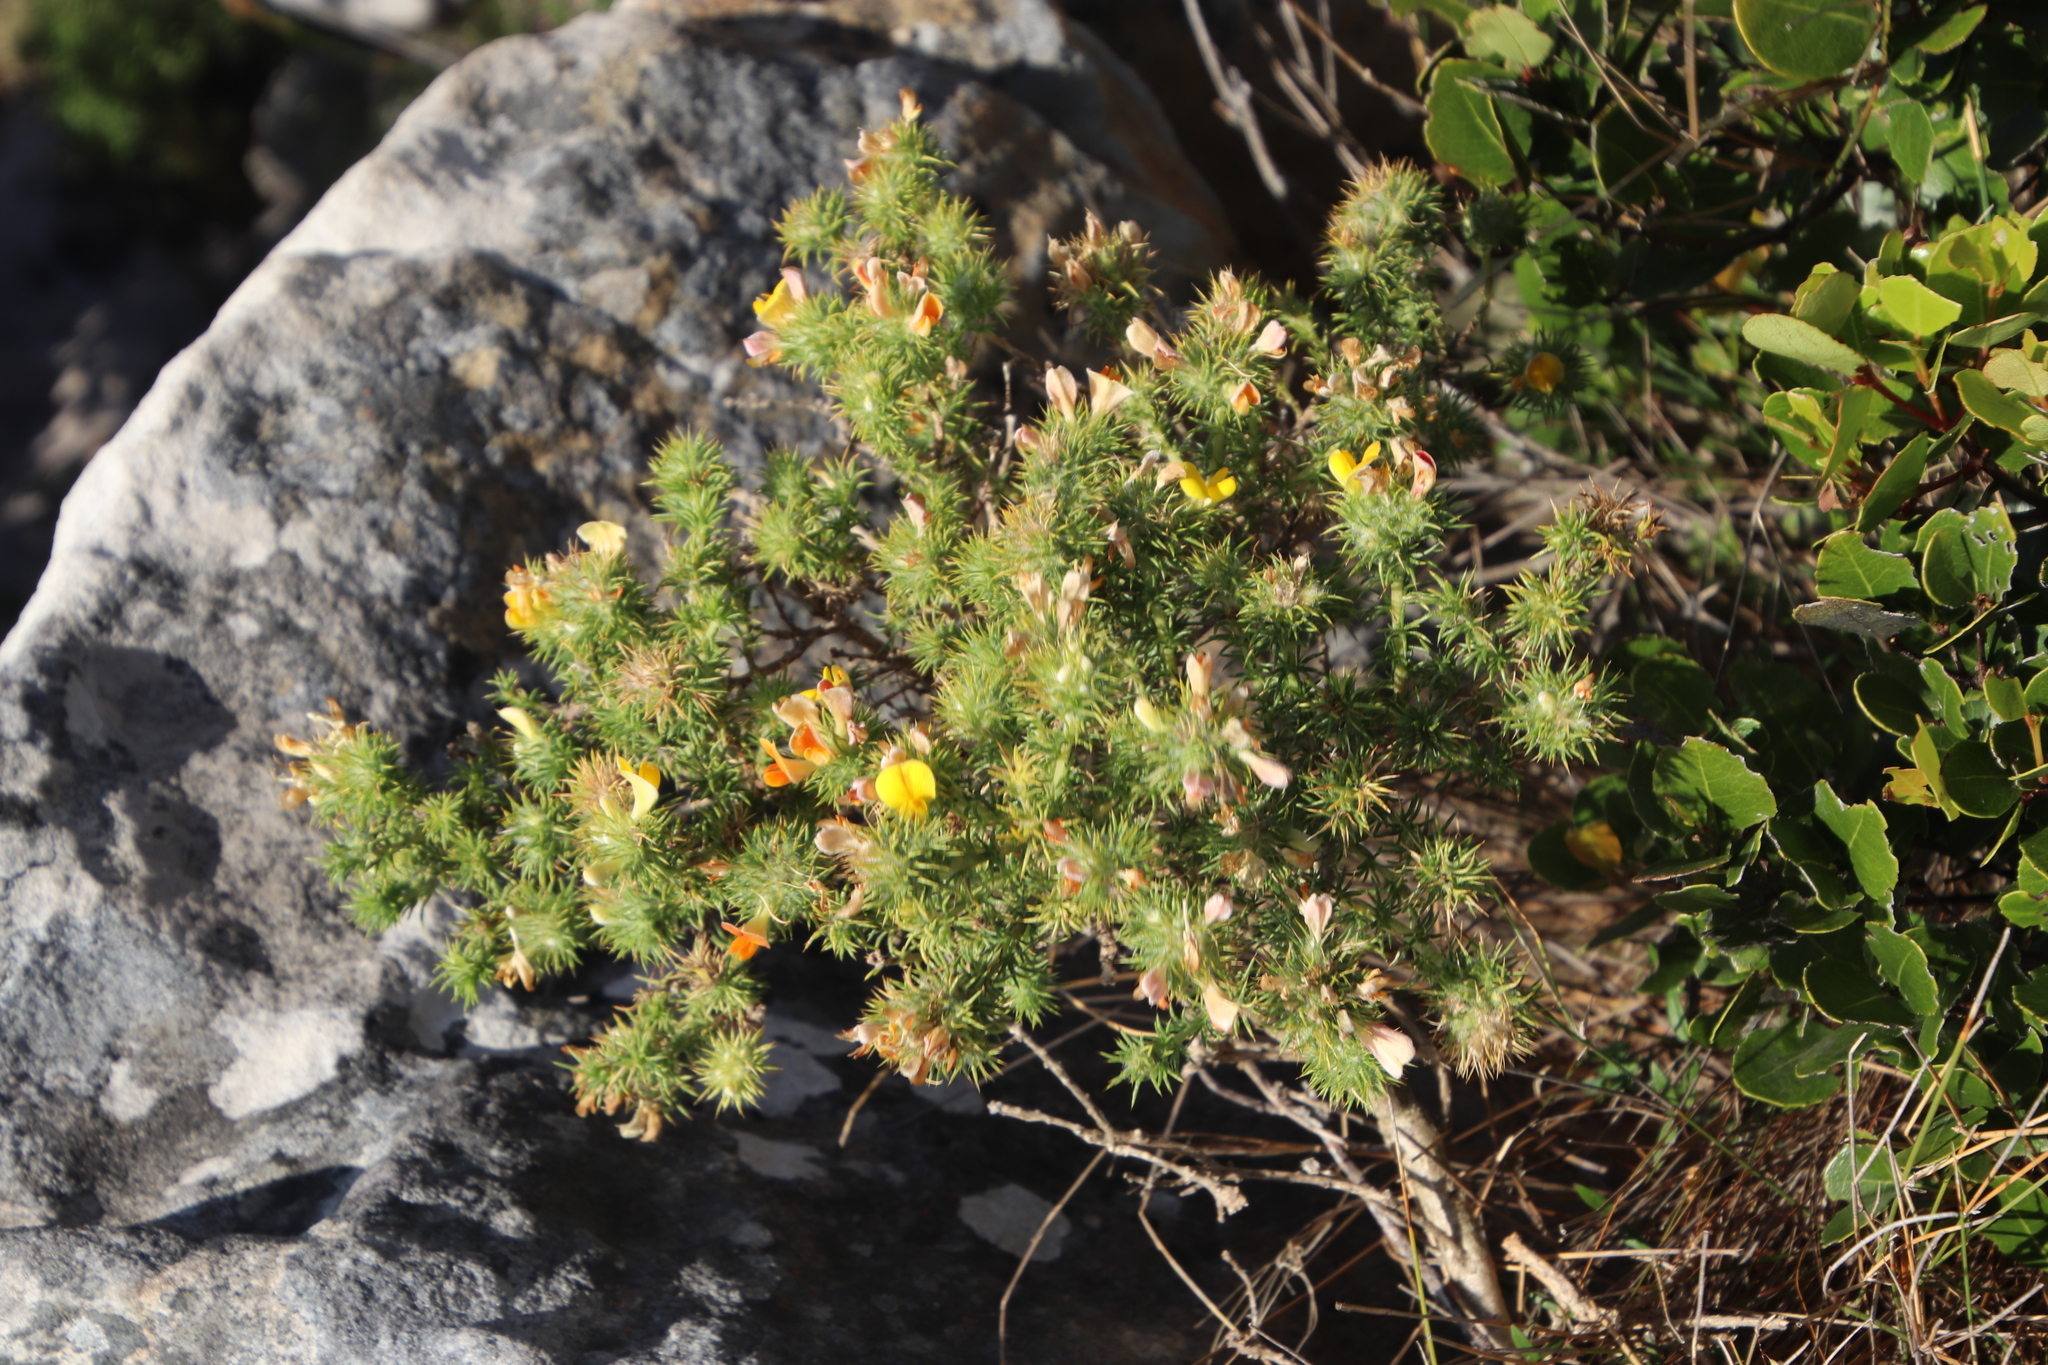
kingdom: Plantae
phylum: Tracheophyta
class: Magnoliopsida
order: Fabales
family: Fabaceae
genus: Aspalathus
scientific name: Aspalathus chenopoda
